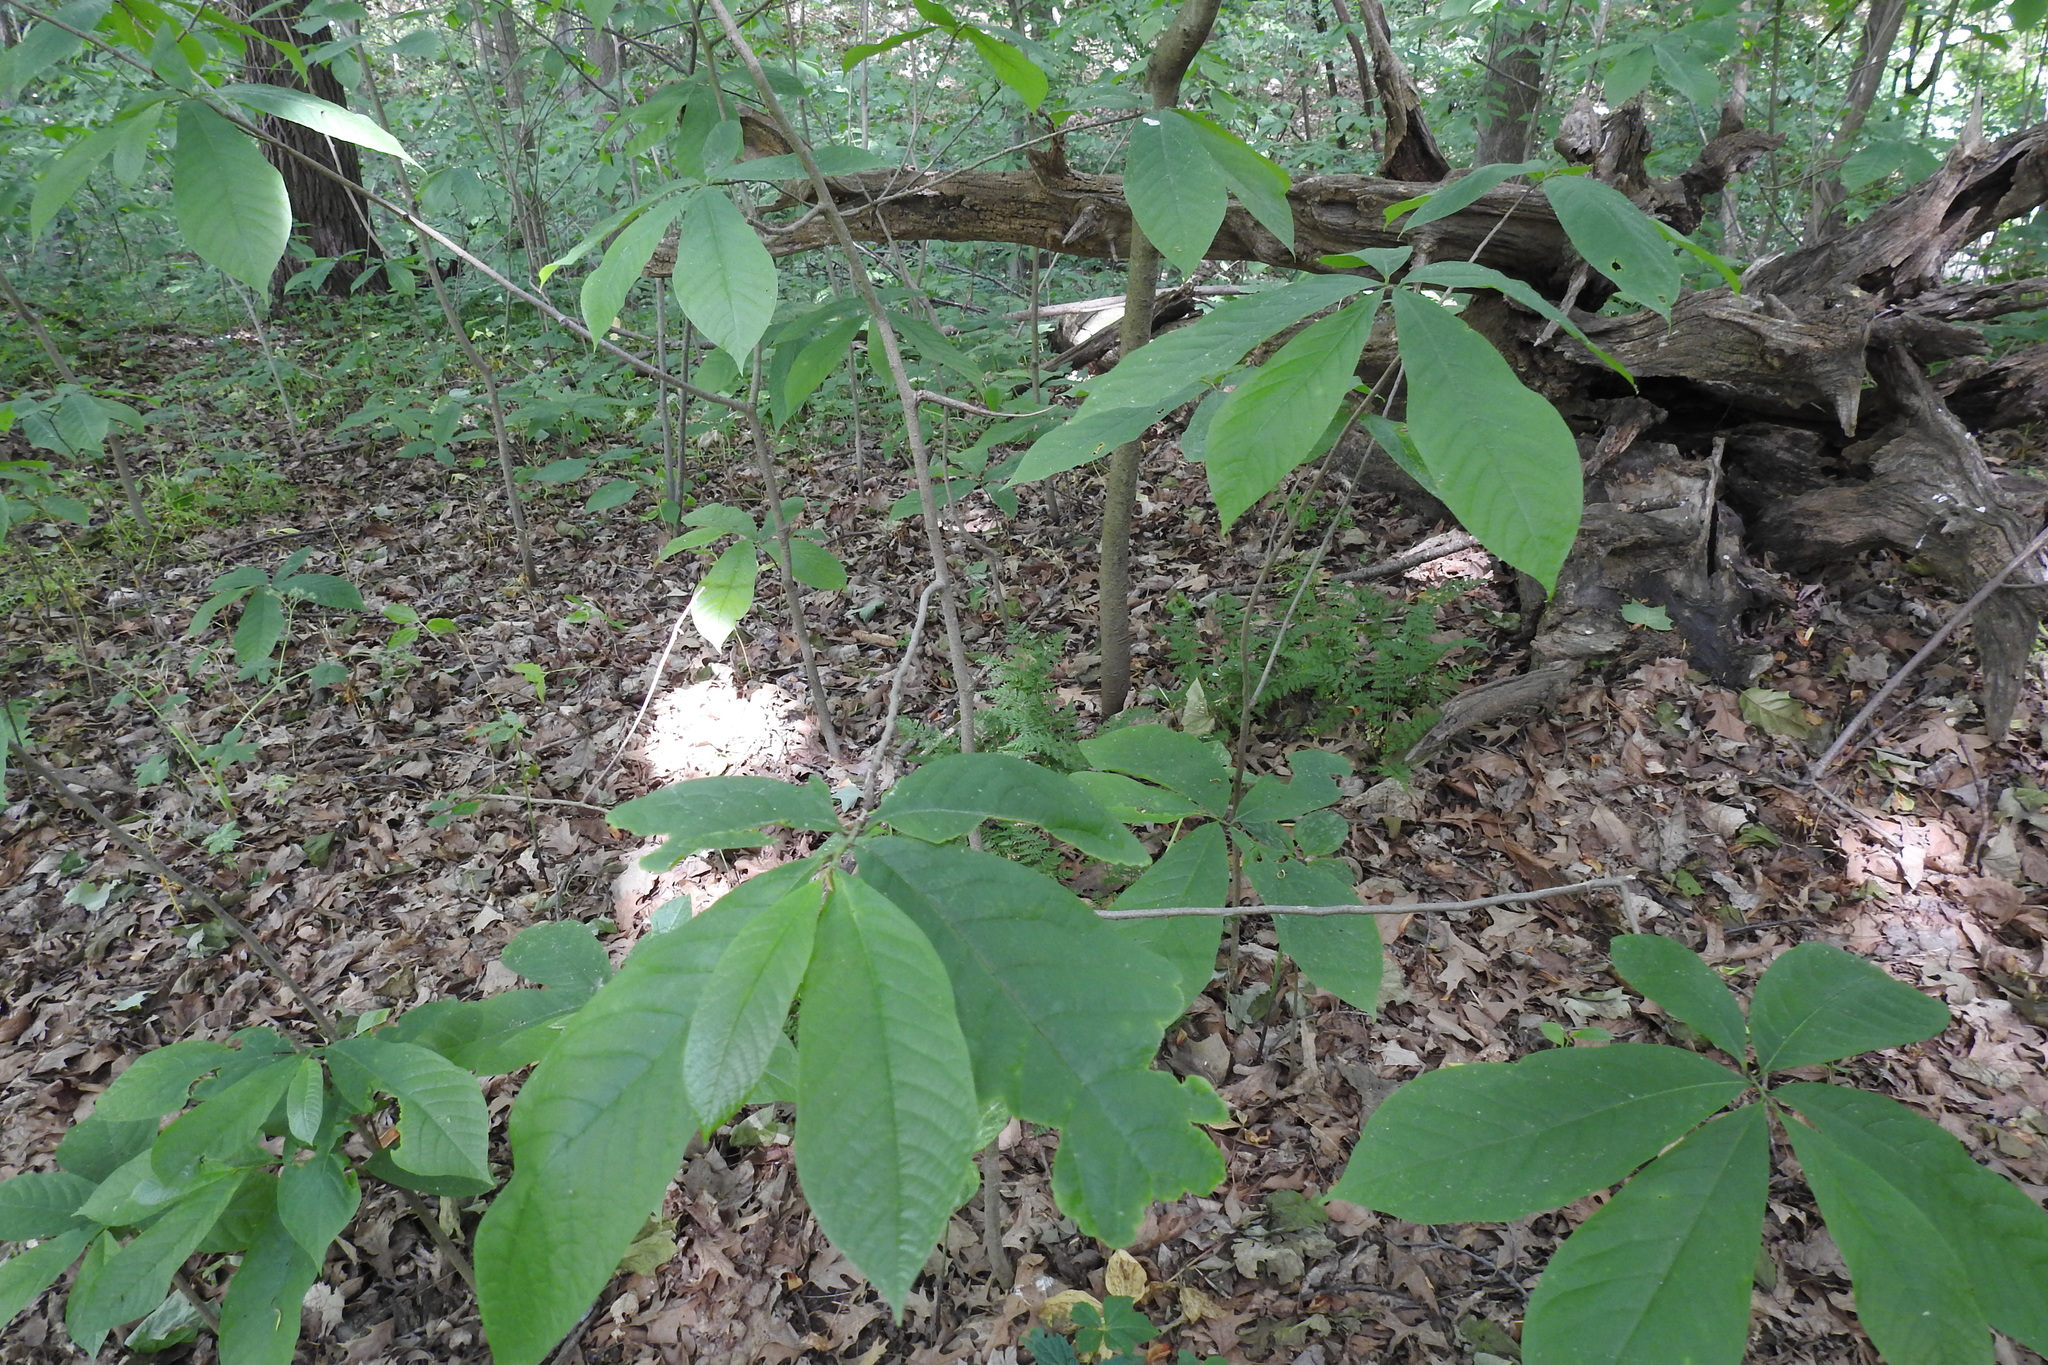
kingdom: Plantae
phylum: Tracheophyta
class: Magnoliopsida
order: Magnoliales
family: Annonaceae
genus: Asimina
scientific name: Asimina triloba
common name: Dog-banana
